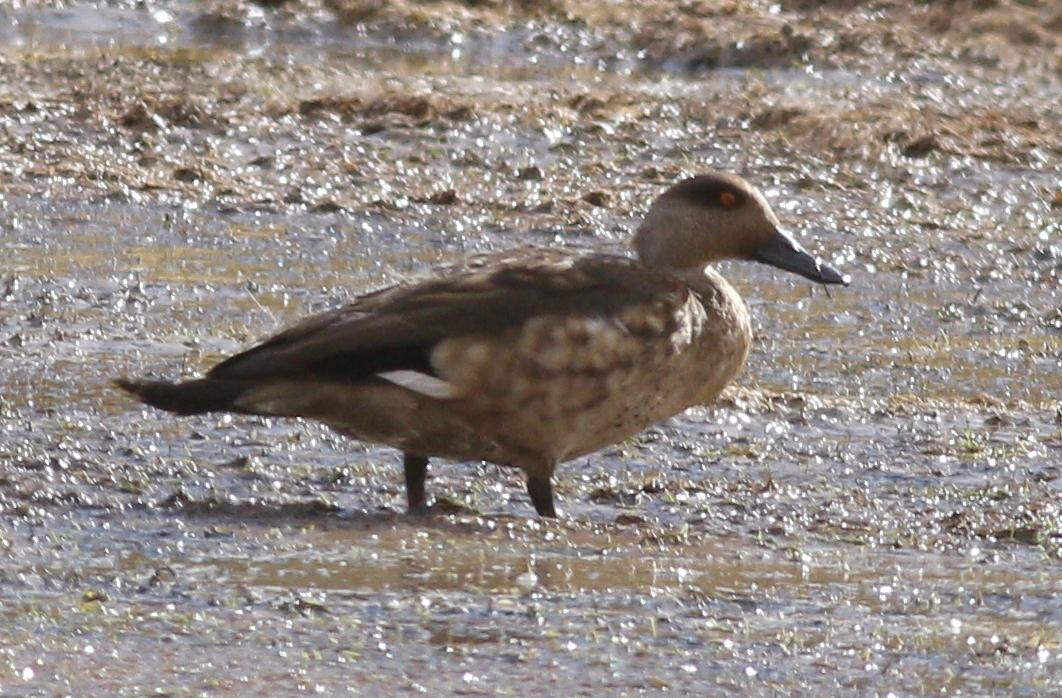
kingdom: Animalia
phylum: Chordata
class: Aves
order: Anseriformes
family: Anatidae
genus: Lophonetta
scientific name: Lophonetta specularioides
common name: Crested duck
